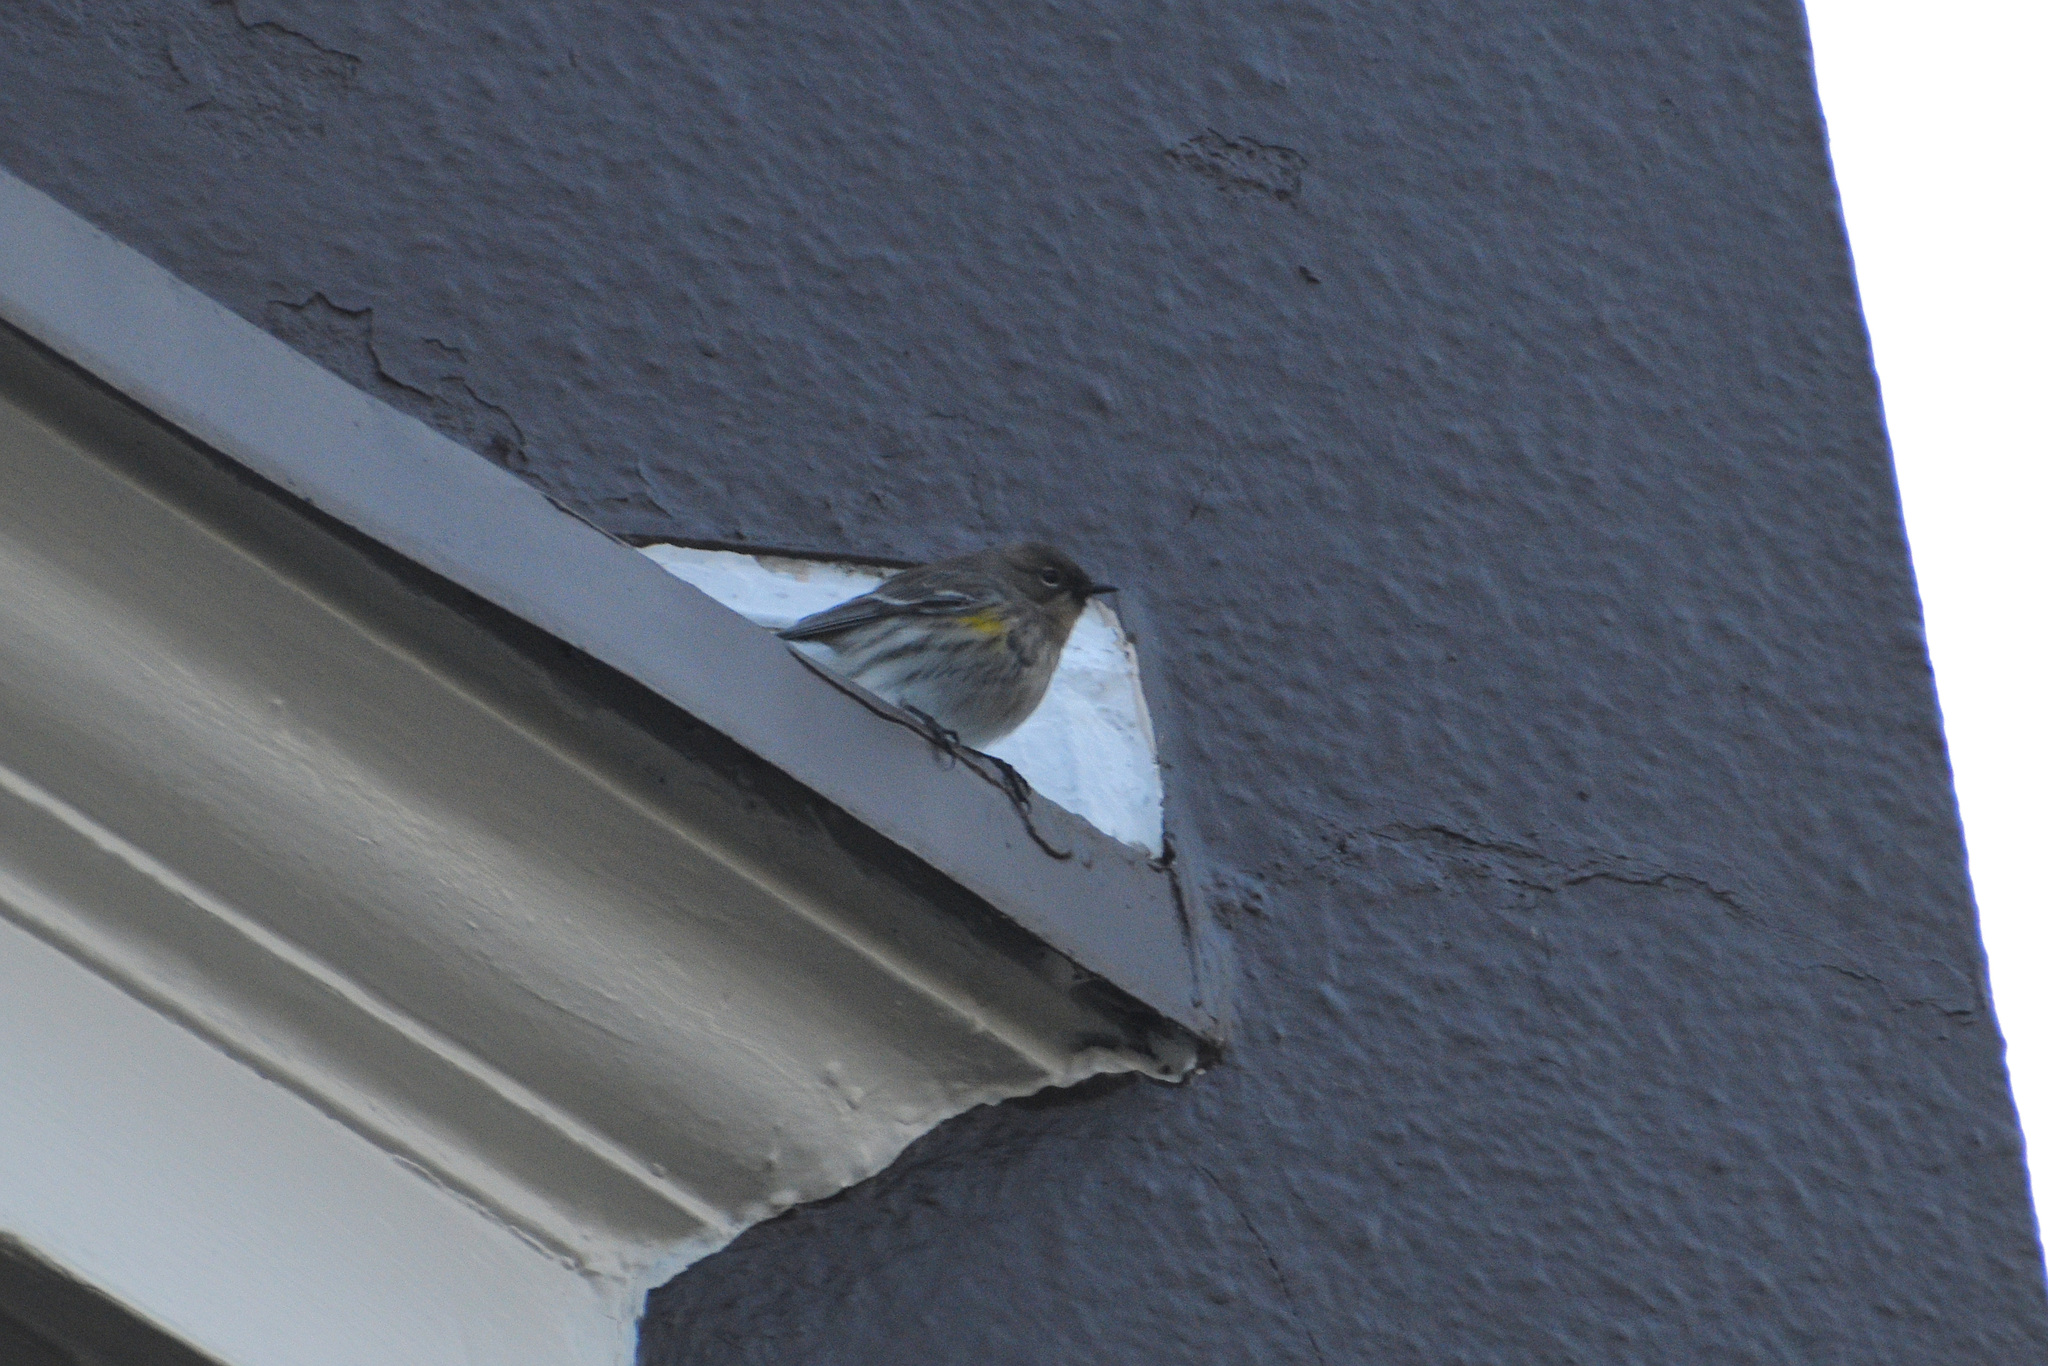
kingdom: Animalia
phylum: Chordata
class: Aves
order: Passeriformes
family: Parulidae
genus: Setophaga
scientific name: Setophaga coronata
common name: Myrtle warbler
